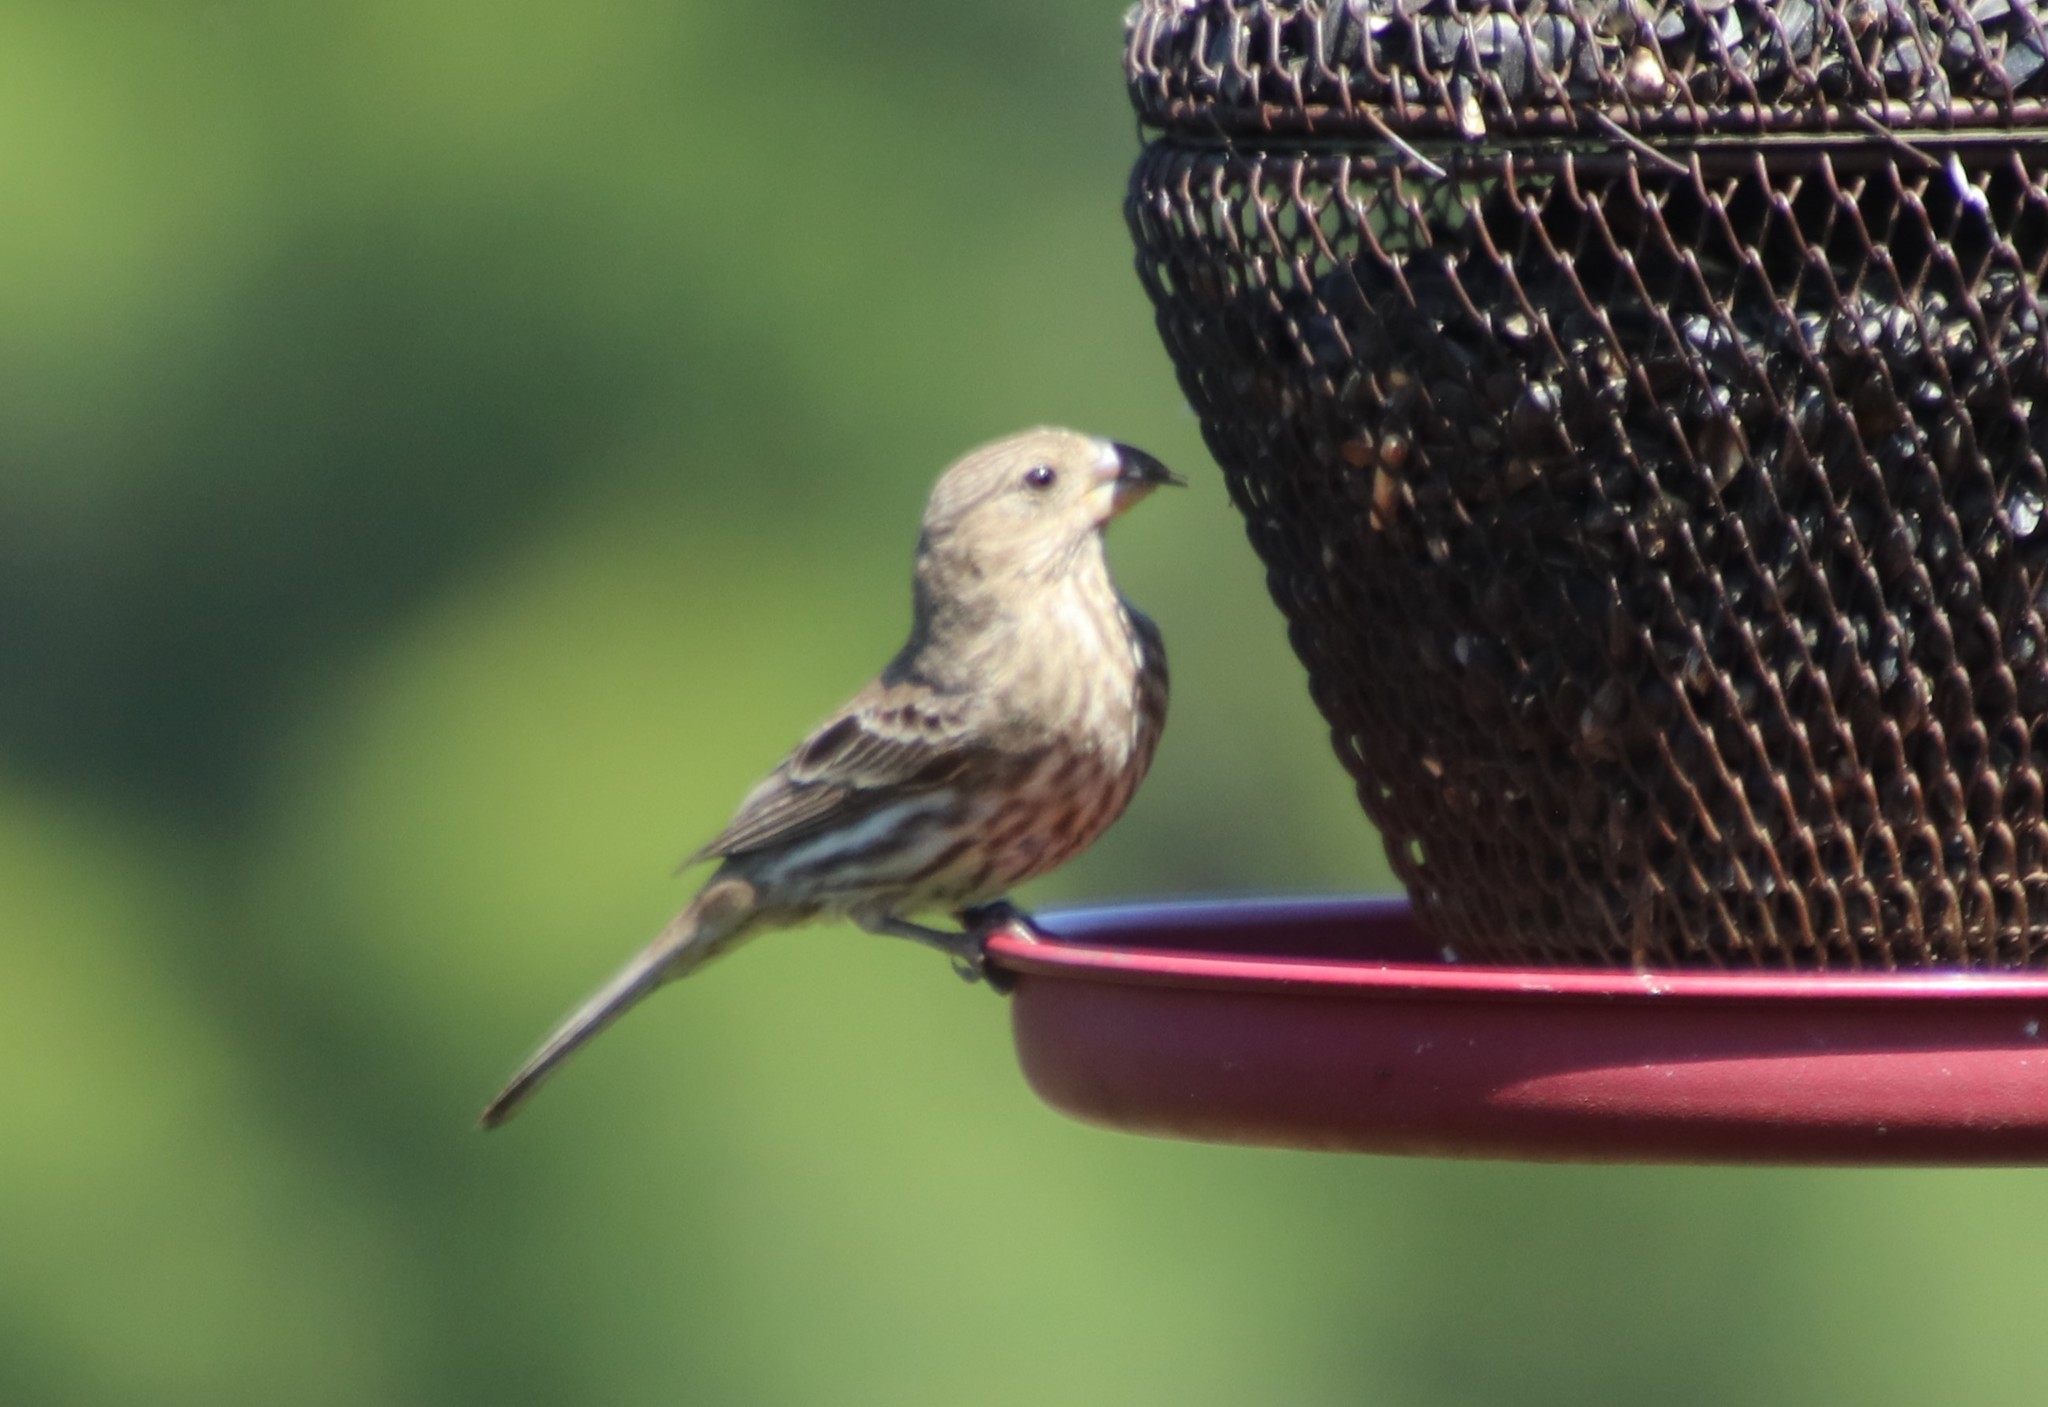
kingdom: Animalia
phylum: Chordata
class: Aves
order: Passeriformes
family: Fringillidae
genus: Haemorhous
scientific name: Haemorhous mexicanus
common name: House finch
